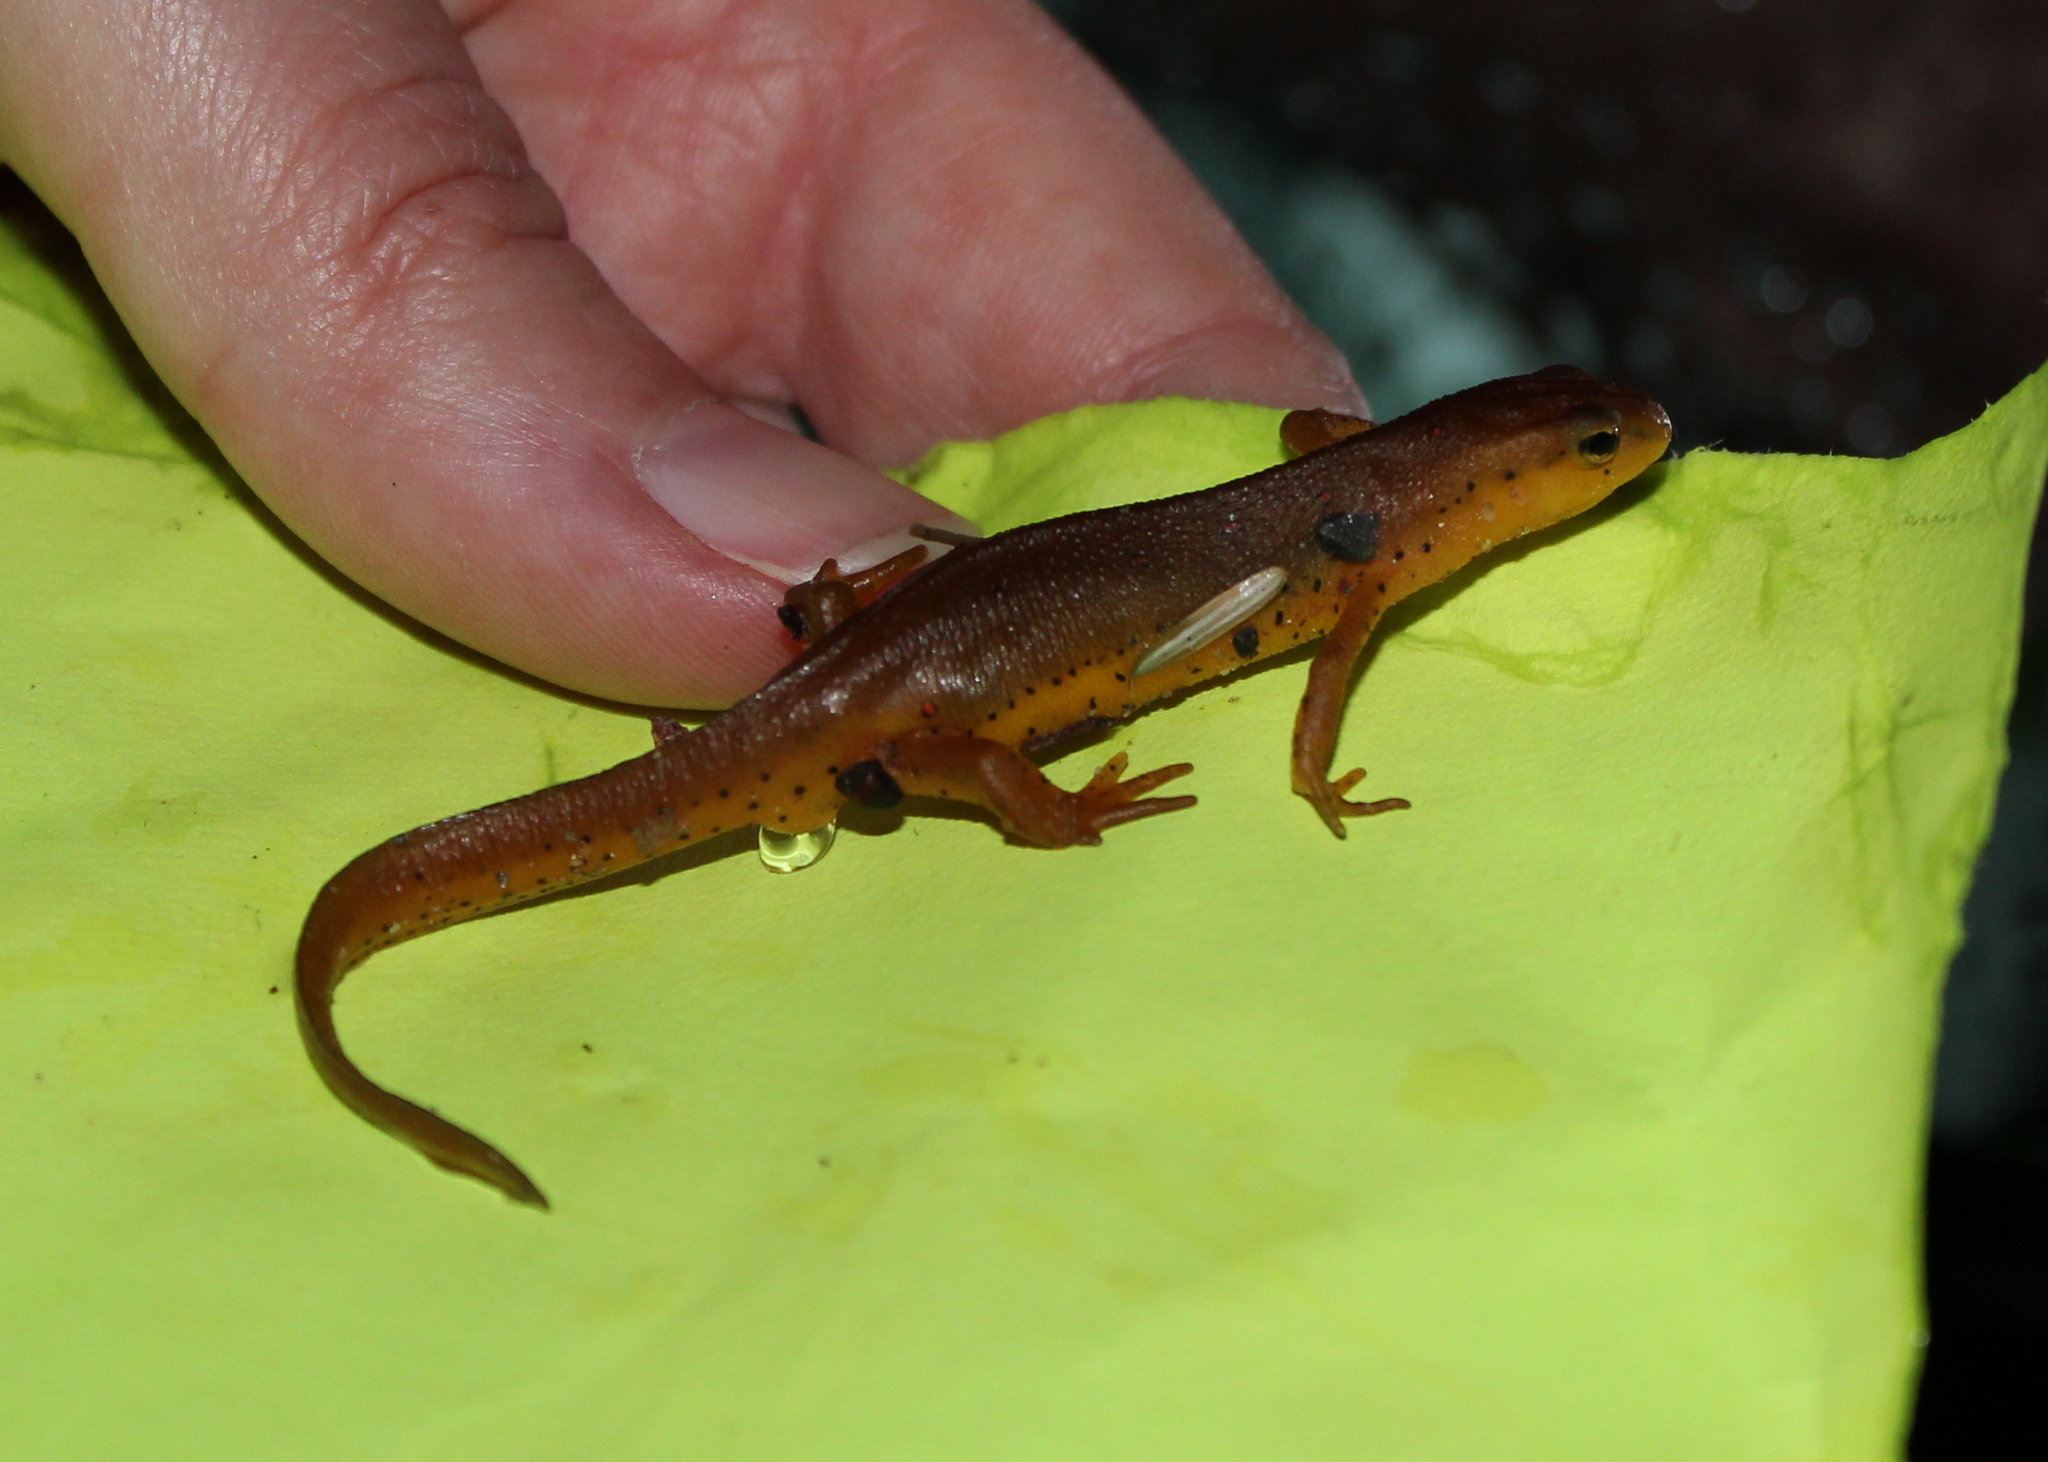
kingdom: Animalia
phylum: Chordata
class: Amphibia
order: Caudata
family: Salamandridae
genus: Notophthalmus
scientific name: Notophthalmus viridescens
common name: Eastern newt
